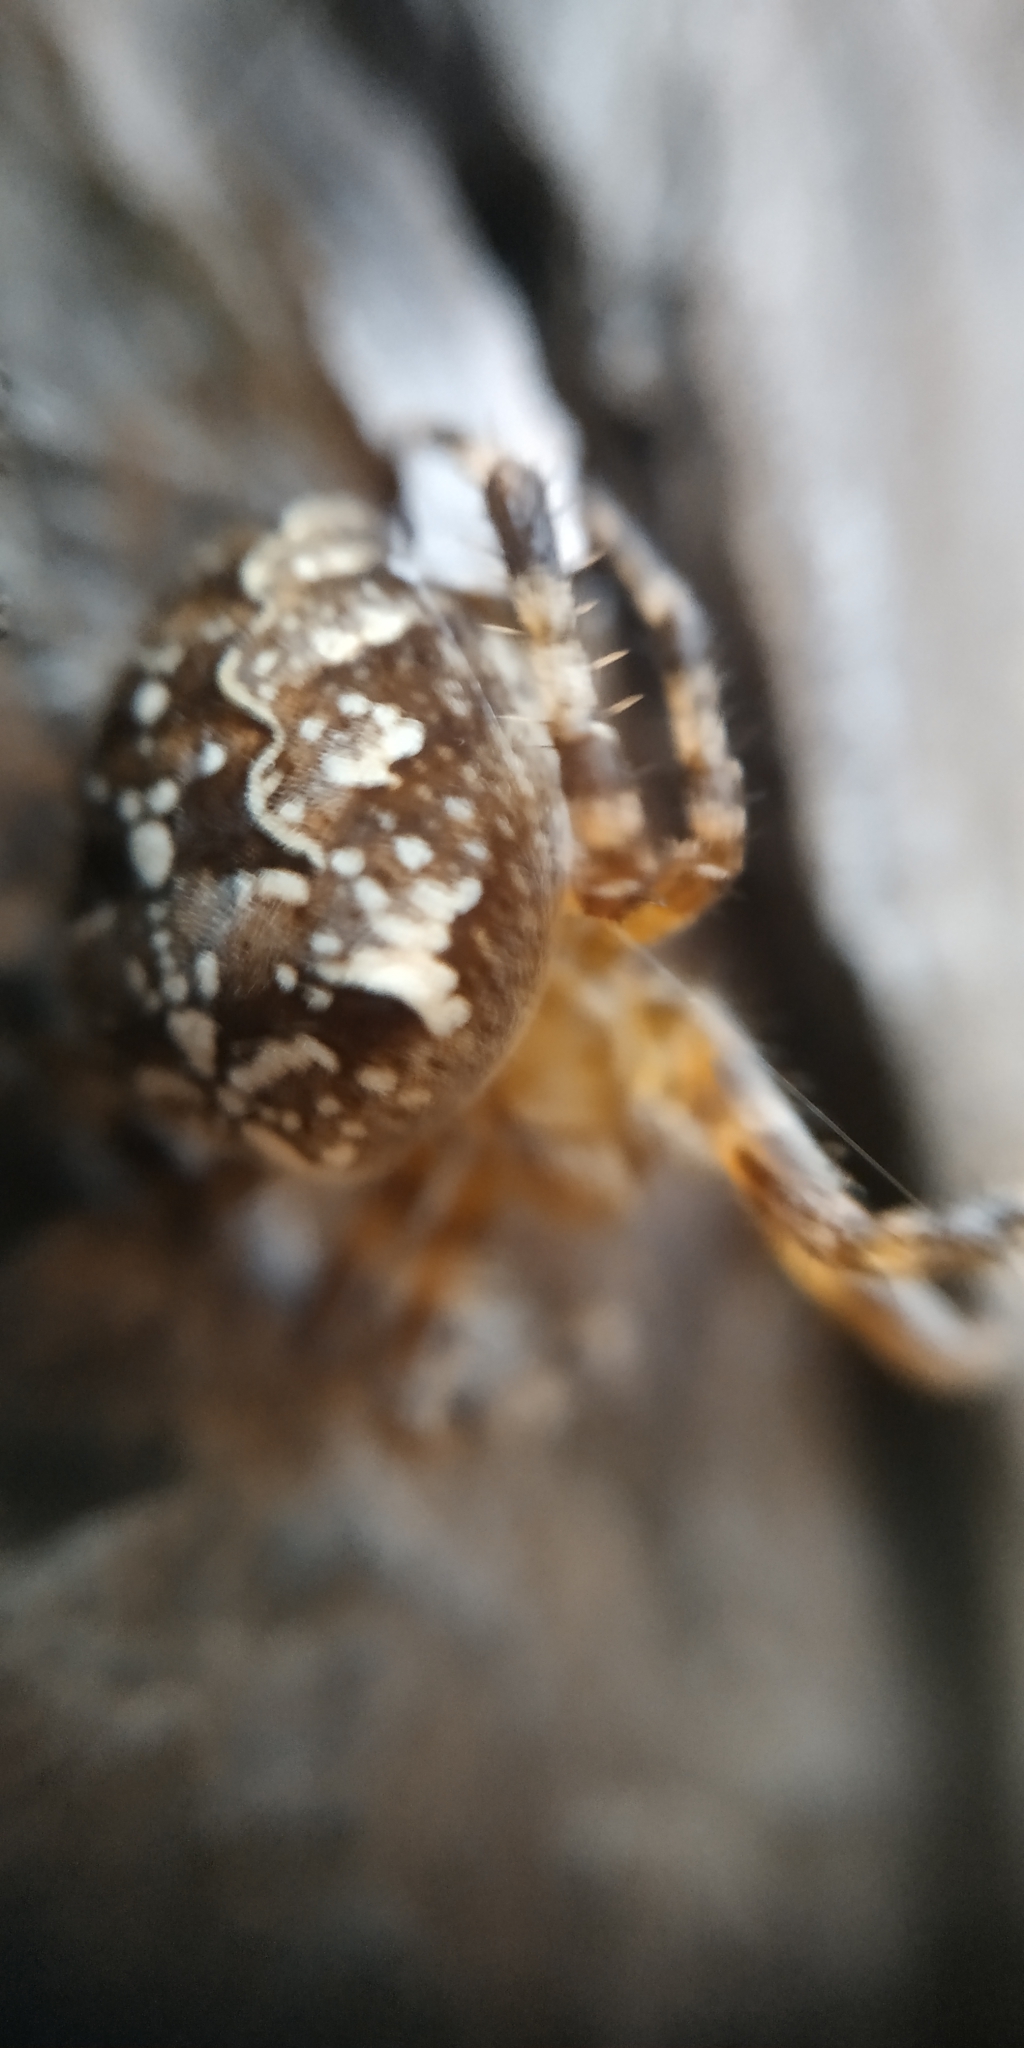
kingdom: Animalia
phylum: Arthropoda
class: Arachnida
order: Araneae
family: Araneidae
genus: Araneus
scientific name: Araneus diadematus
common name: Cross orbweaver
